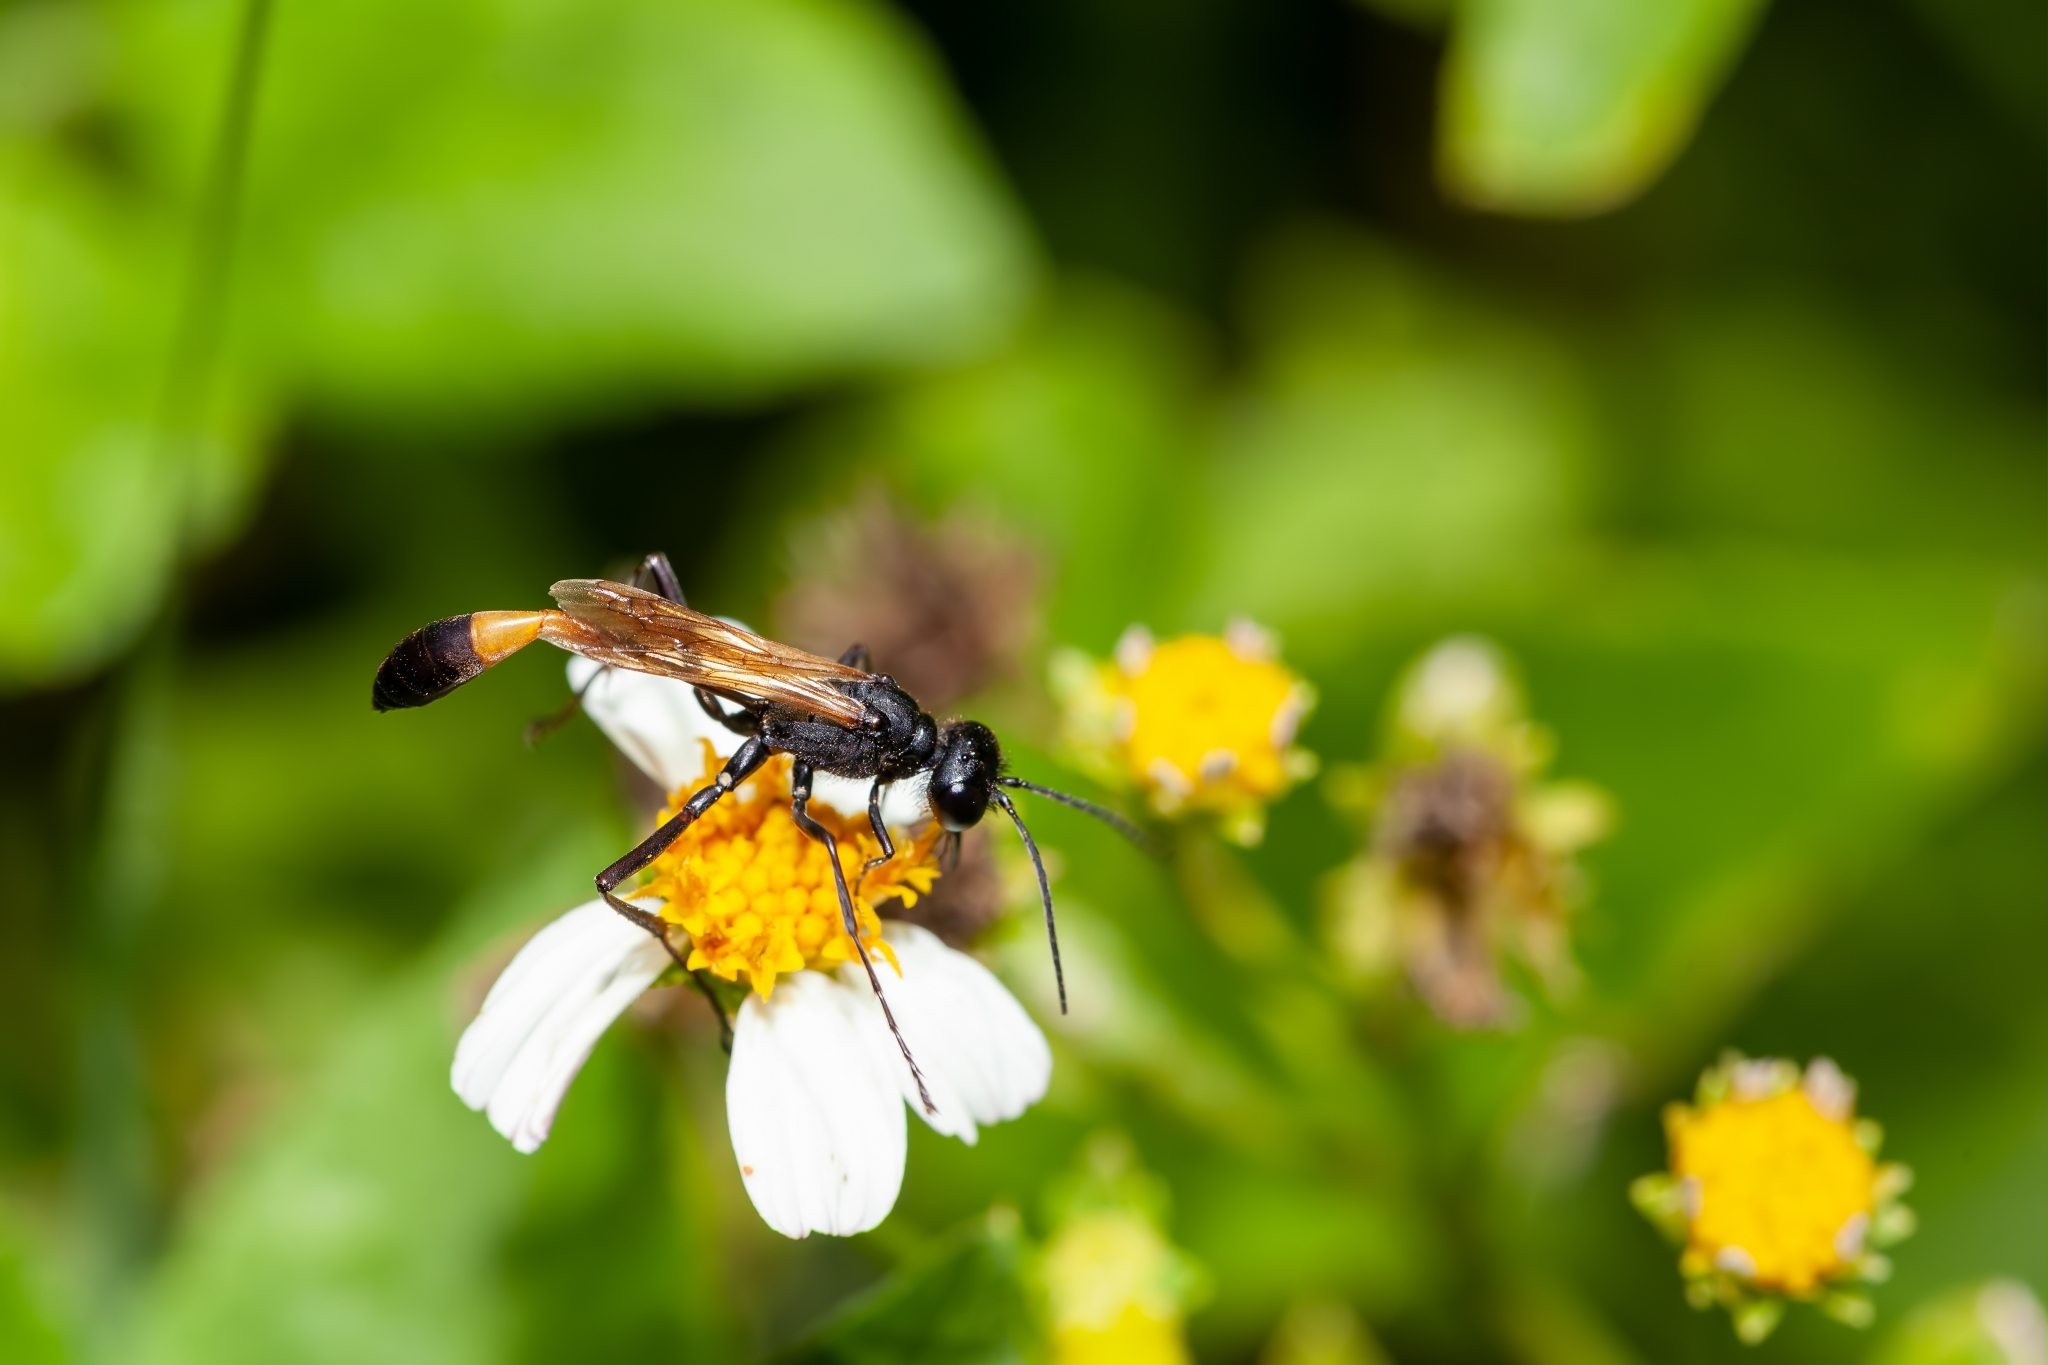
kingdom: Animalia
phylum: Arthropoda
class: Insecta
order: Hymenoptera
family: Sphecidae
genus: Ammophila
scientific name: Ammophila pictipennis
